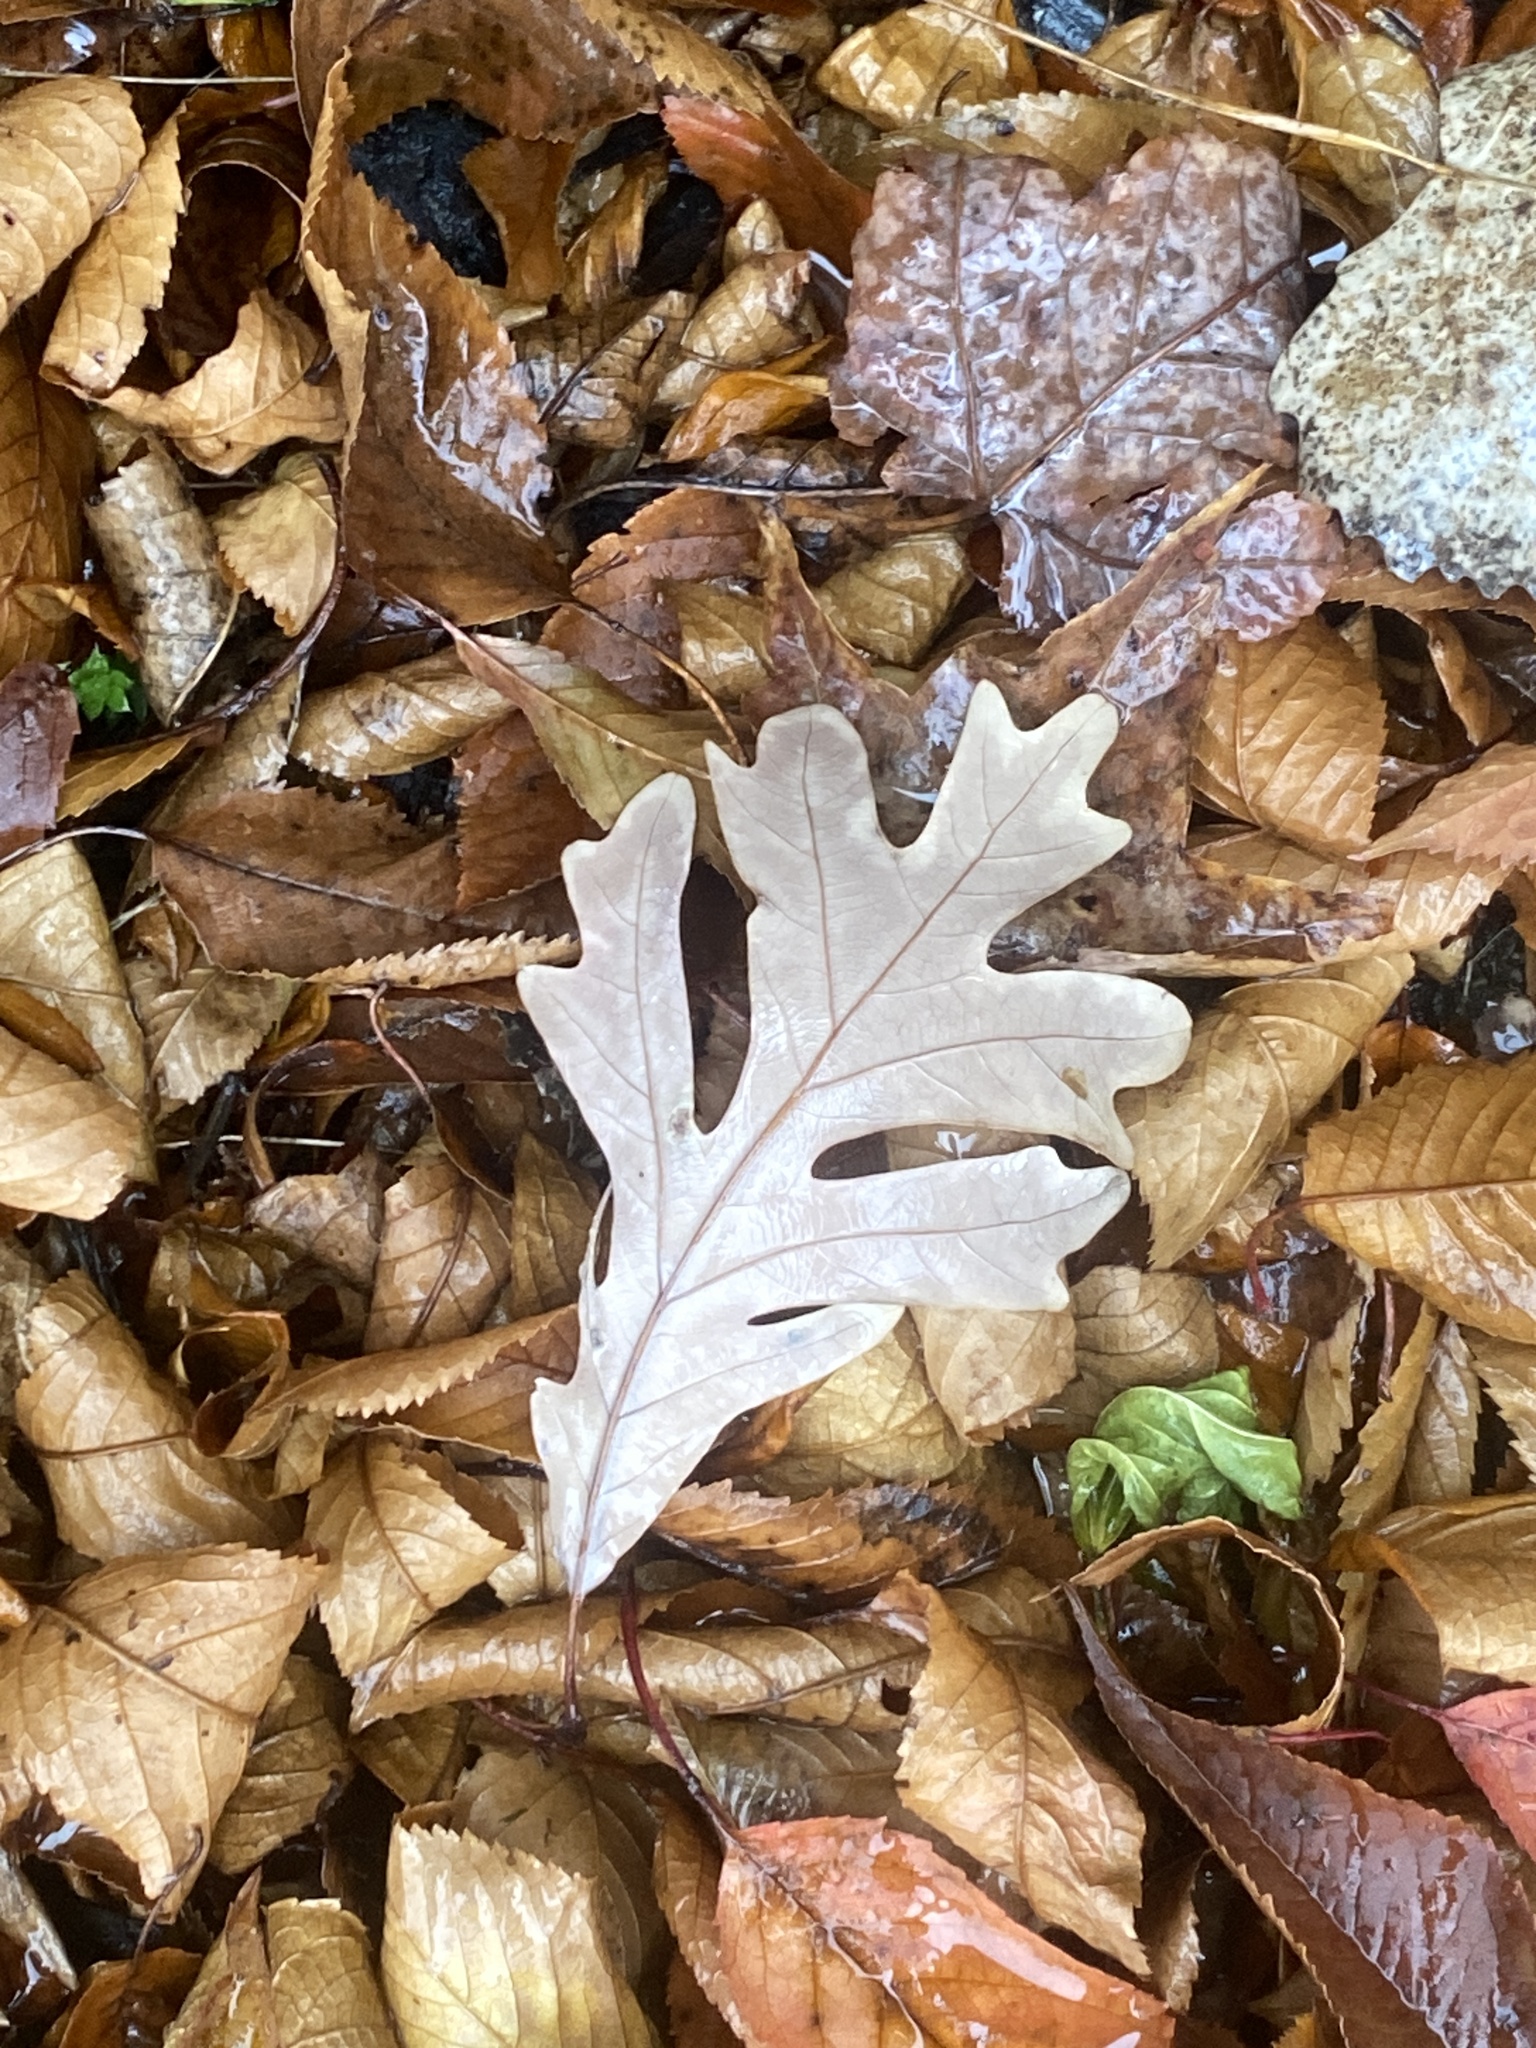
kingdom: Plantae
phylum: Tracheophyta
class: Magnoliopsida
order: Fagales
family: Fagaceae
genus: Quercus
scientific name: Quercus alba
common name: White oak
